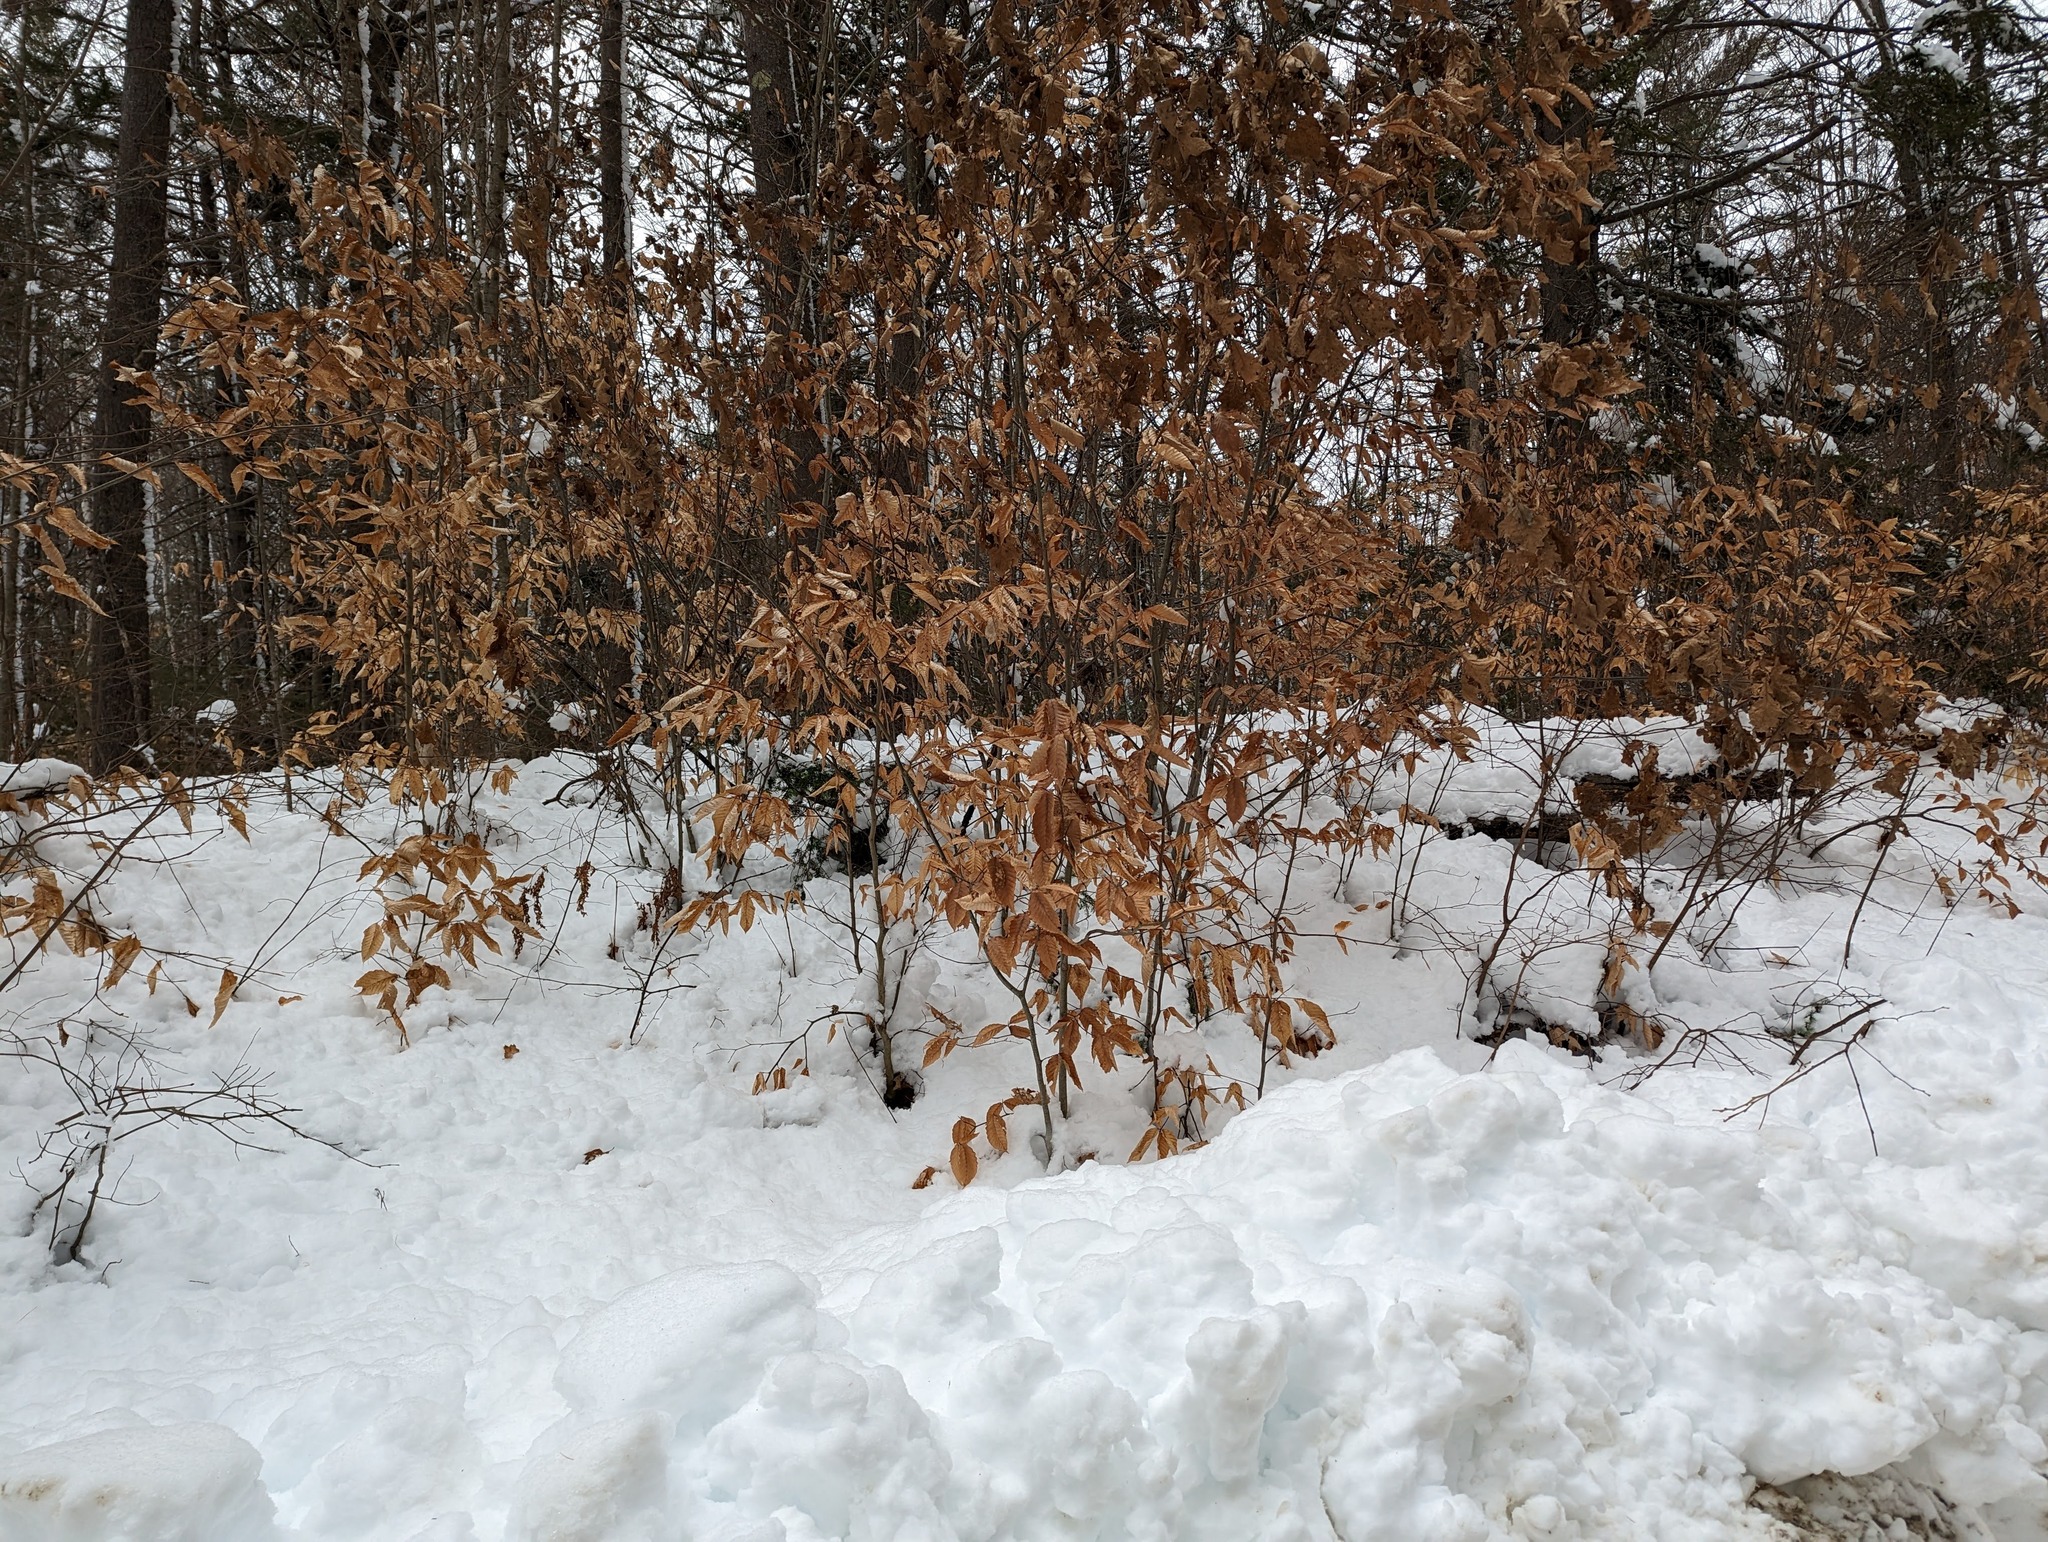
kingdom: Plantae
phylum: Tracheophyta
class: Magnoliopsida
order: Fagales
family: Fagaceae
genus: Fagus
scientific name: Fagus grandifolia
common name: American beech
